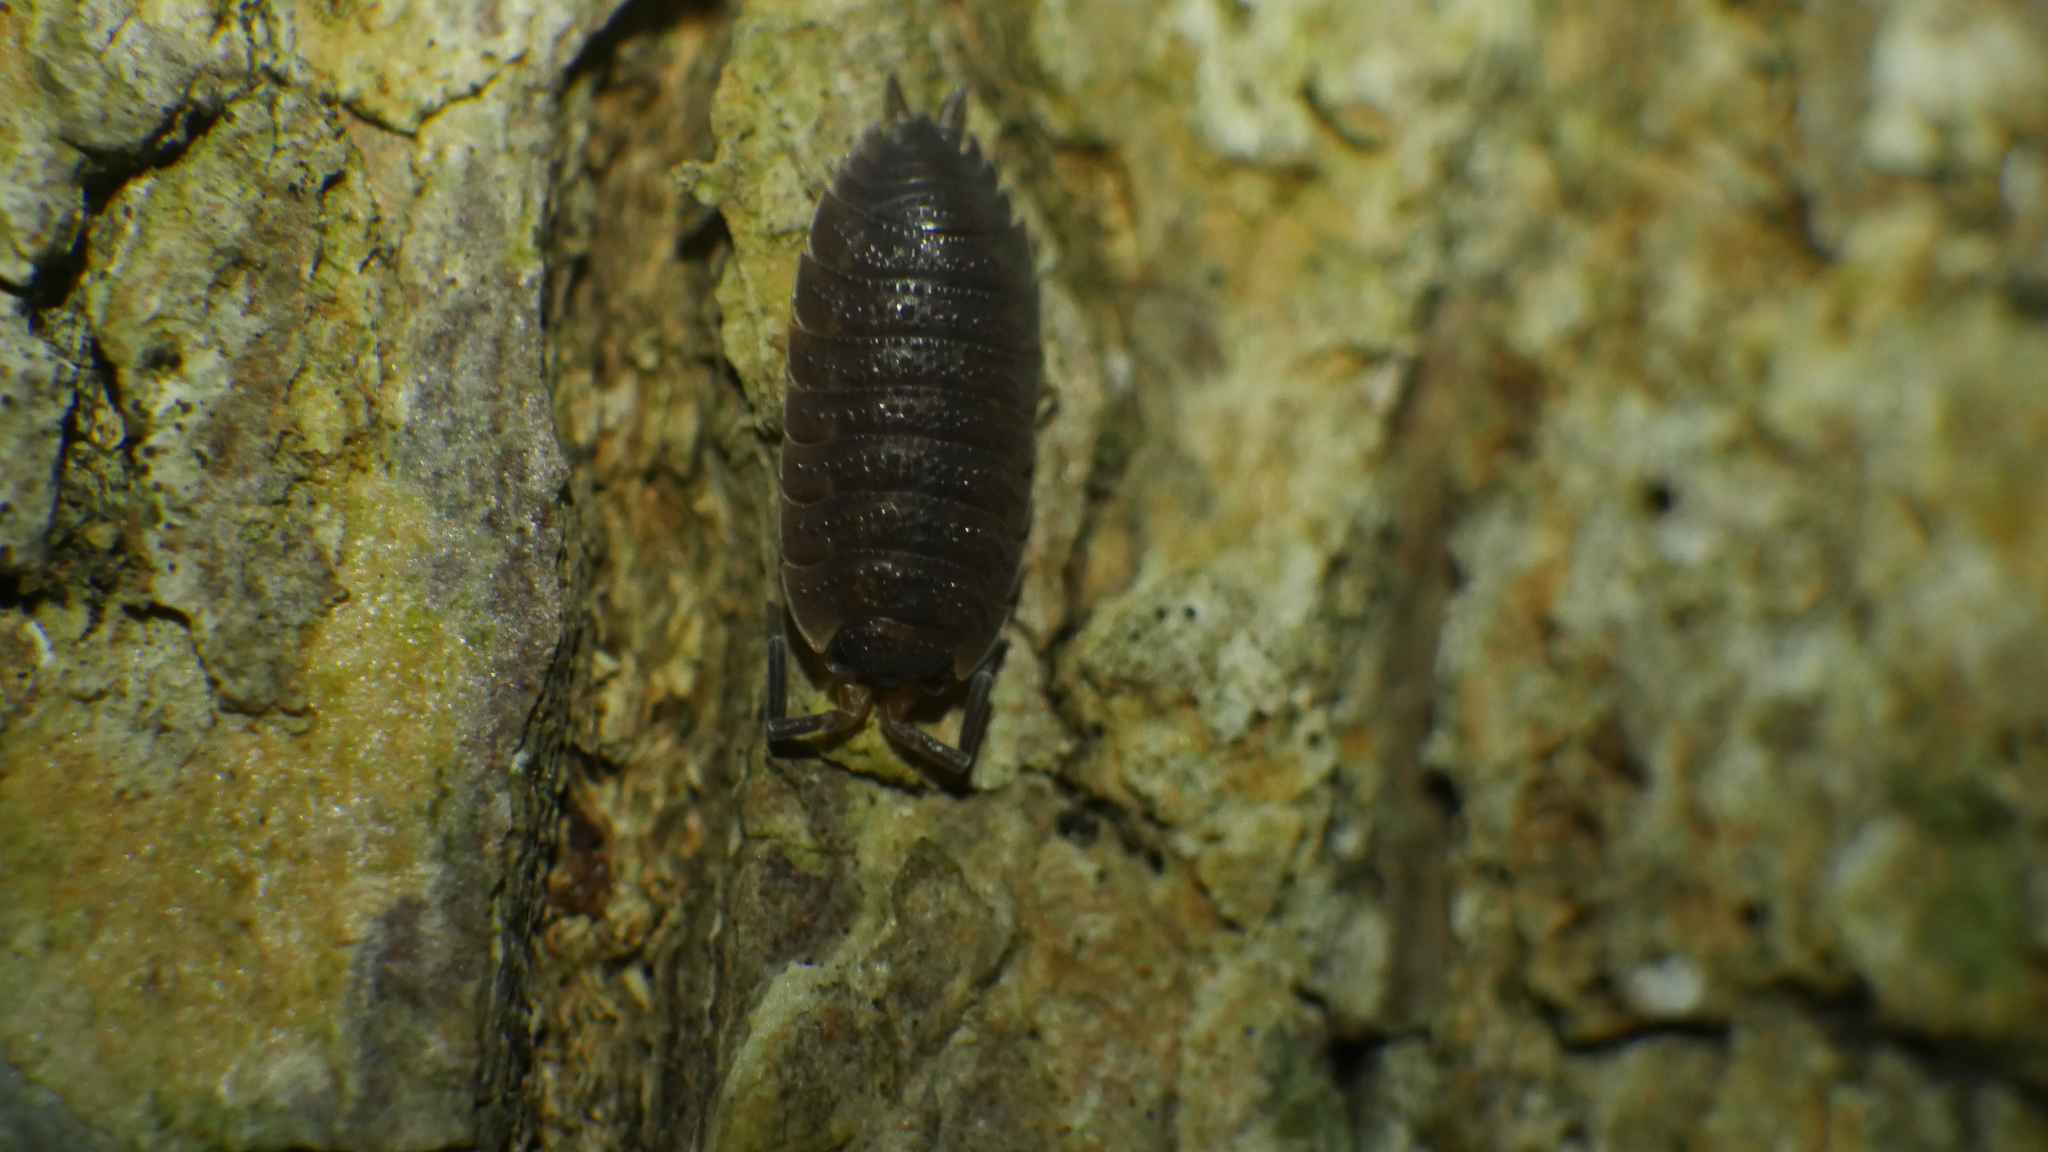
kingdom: Animalia
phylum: Arthropoda
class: Malacostraca
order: Isopoda
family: Porcellionidae
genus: Porcellio
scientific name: Porcellio scaber
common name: Common rough woodlouse
